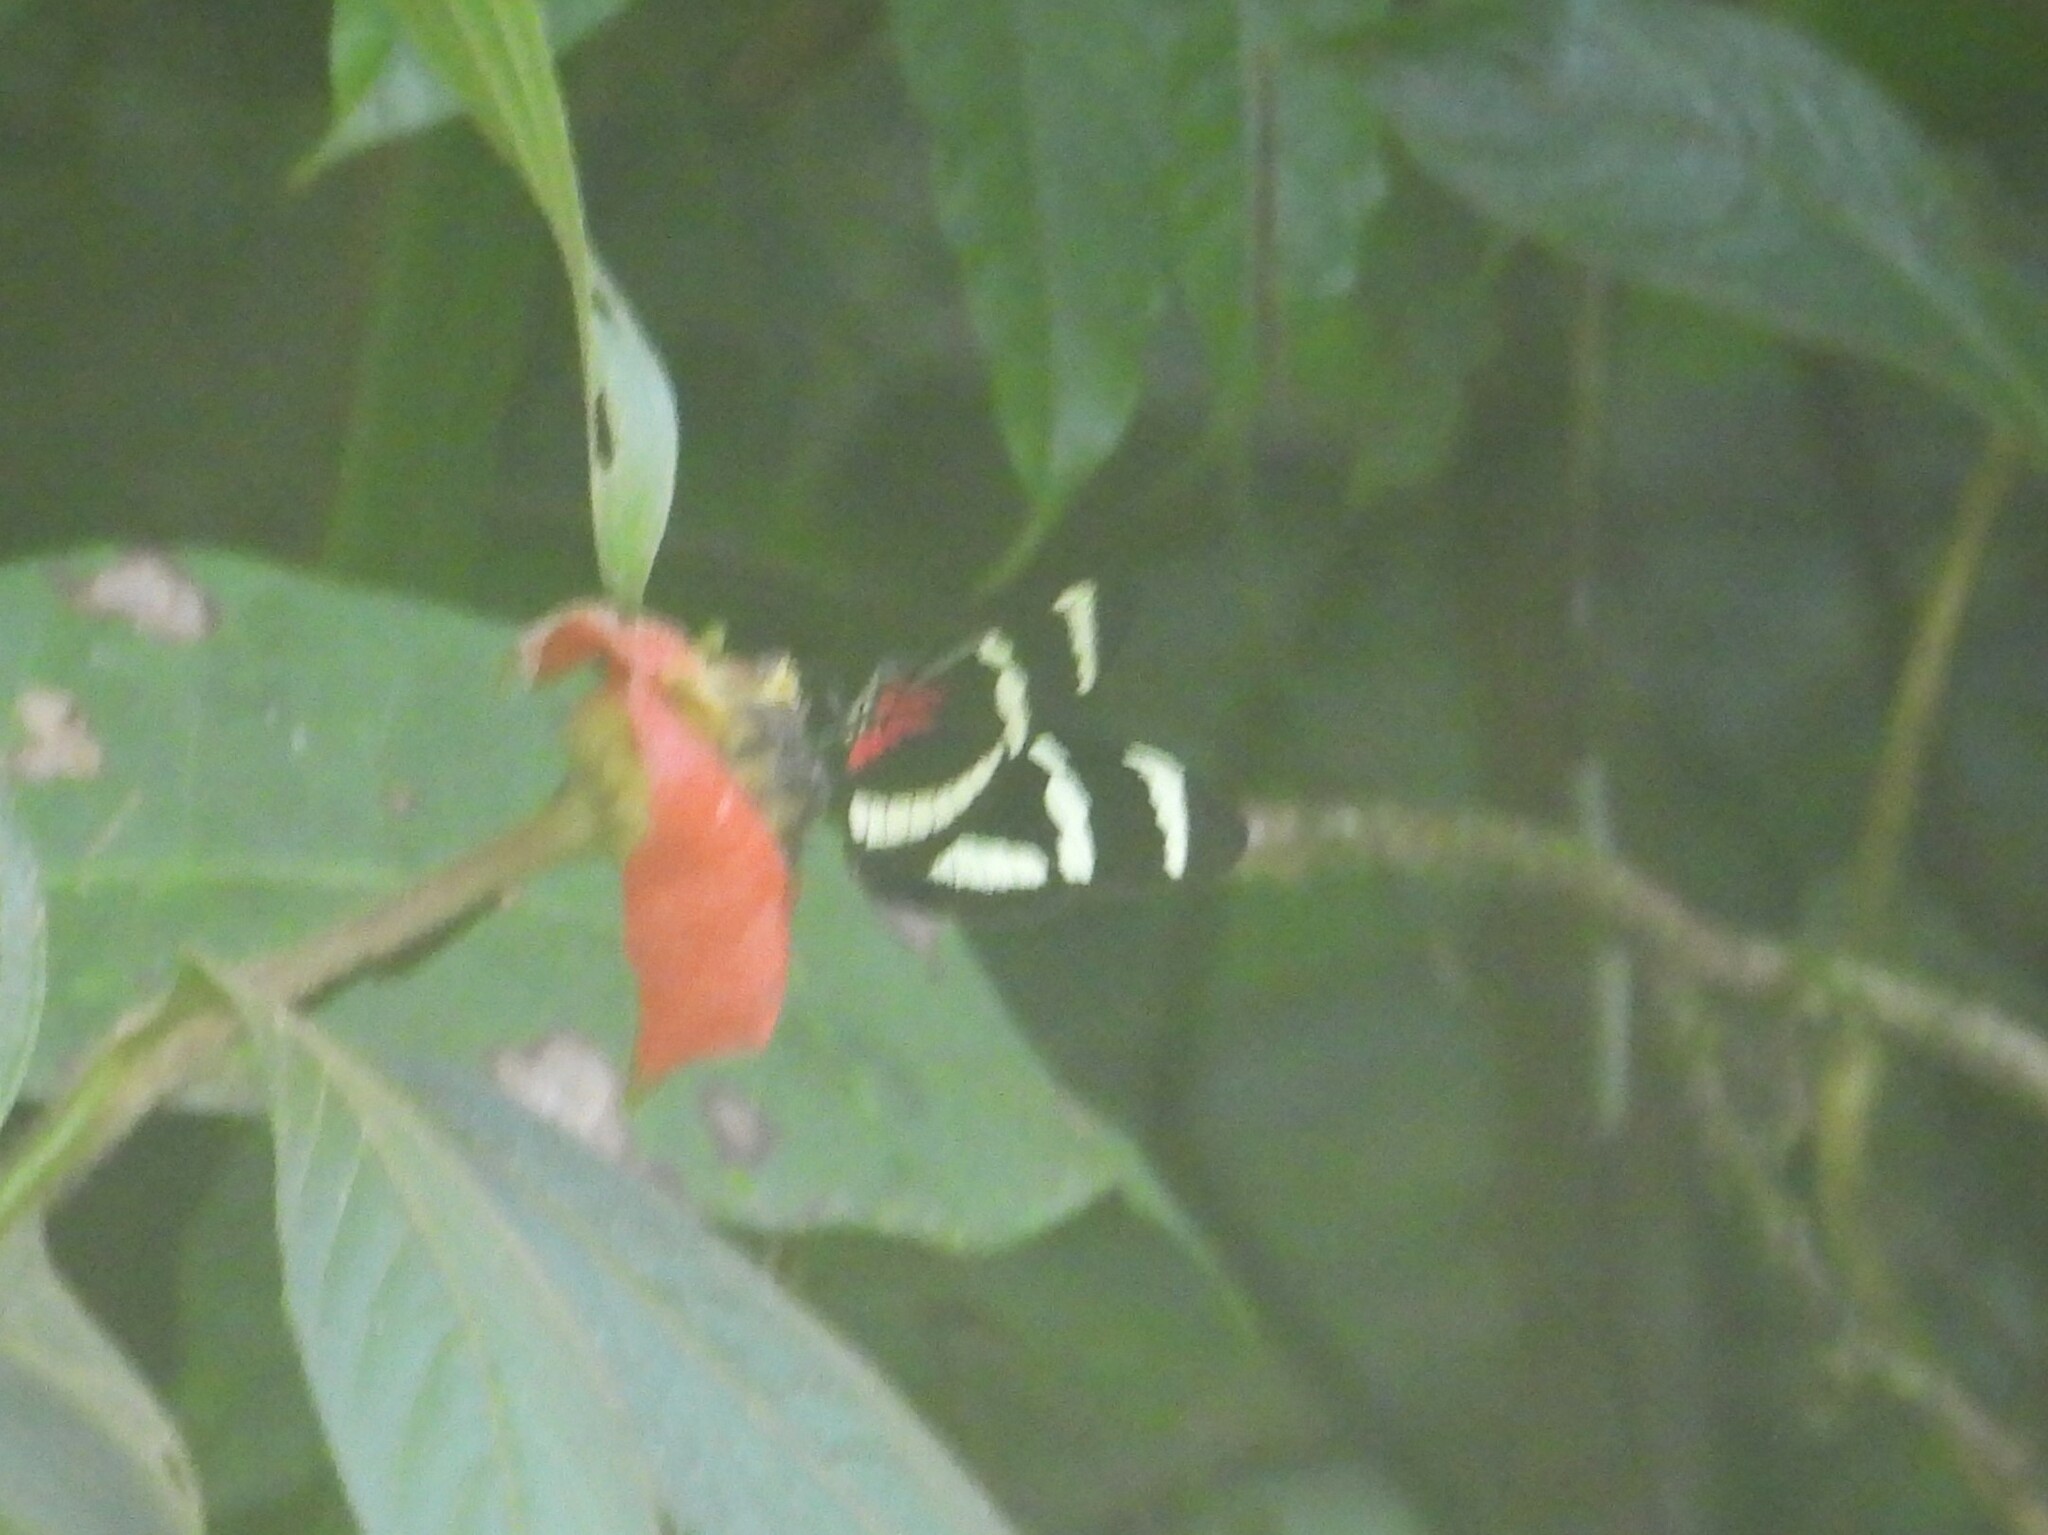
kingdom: Animalia
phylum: Arthropoda
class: Insecta
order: Lepidoptera
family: Nymphalidae
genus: Heliconius
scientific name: Heliconius hewitsoni
